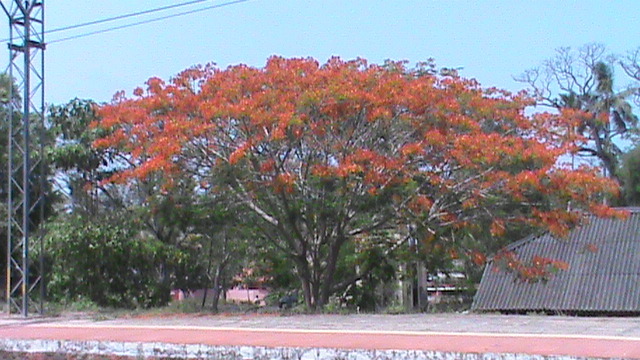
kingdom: Plantae
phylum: Tracheophyta
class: Magnoliopsida
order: Fabales
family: Fabaceae
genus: Delonix
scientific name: Delonix regia
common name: Royal poinciana
